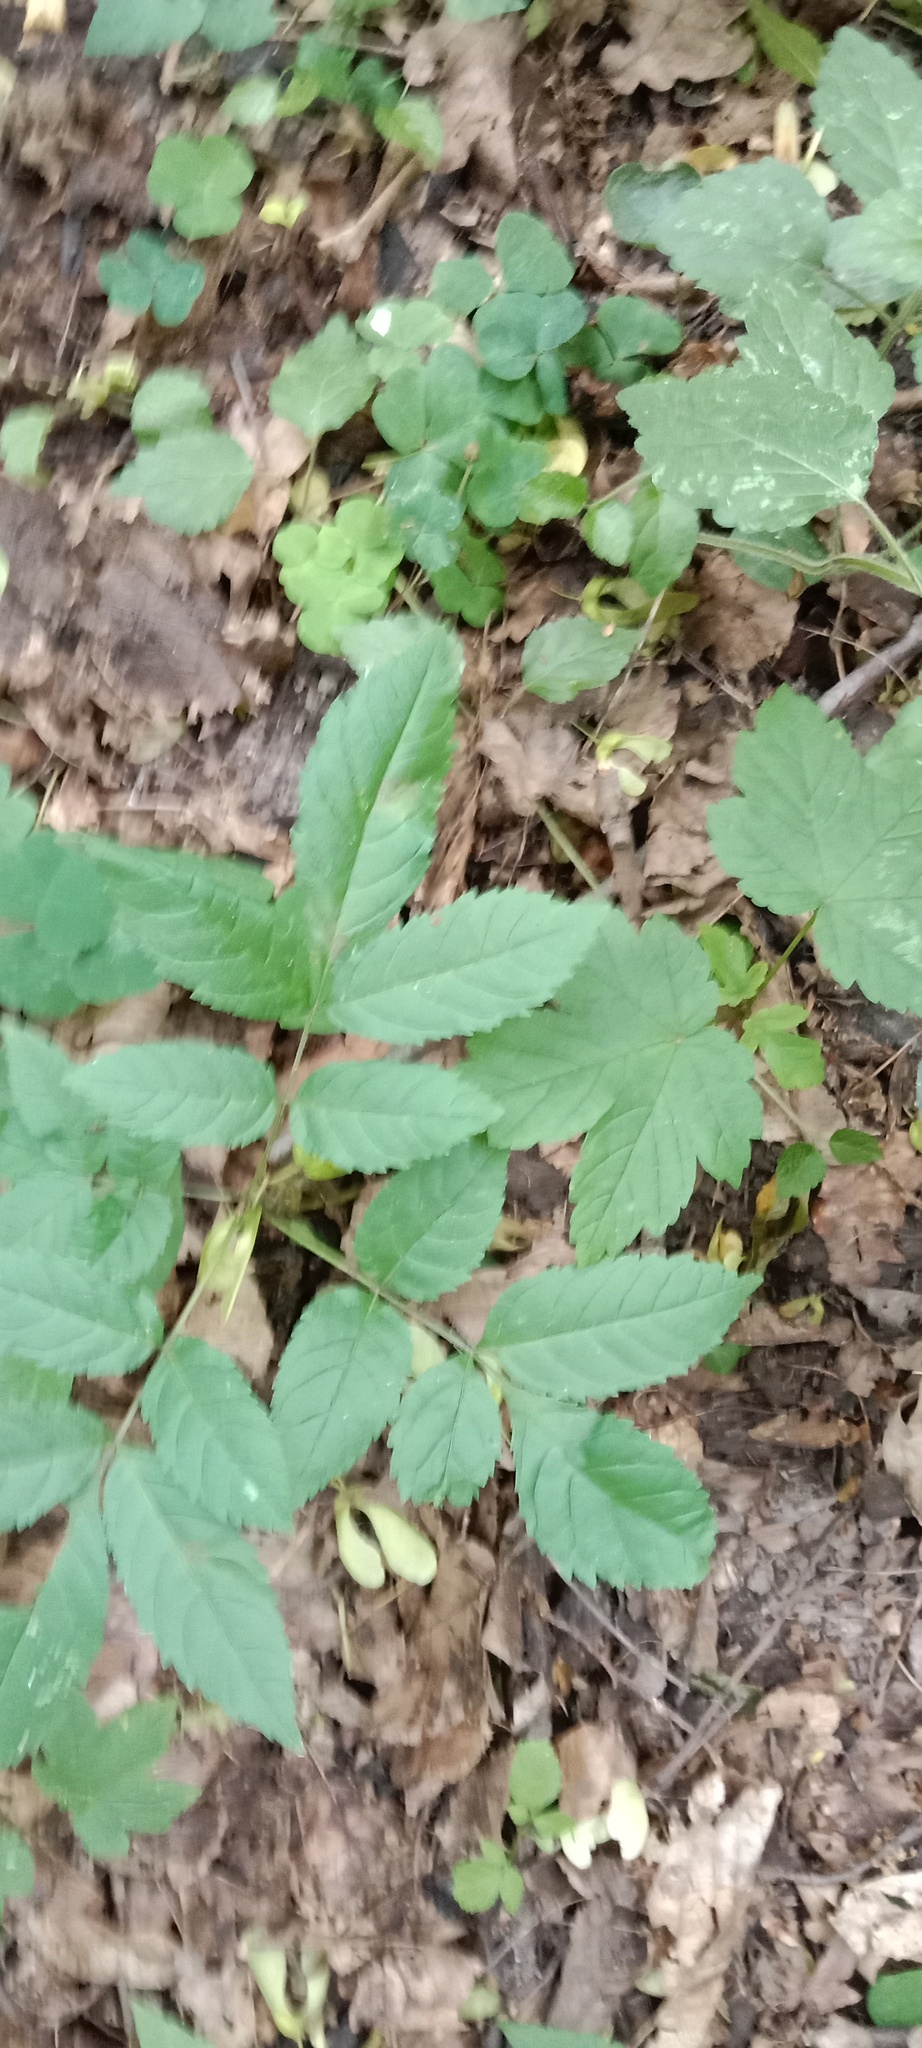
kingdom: Plantae
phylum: Tracheophyta
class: Magnoliopsida
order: Lamiales
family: Oleaceae
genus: Fraxinus
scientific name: Fraxinus excelsior
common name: European ash
